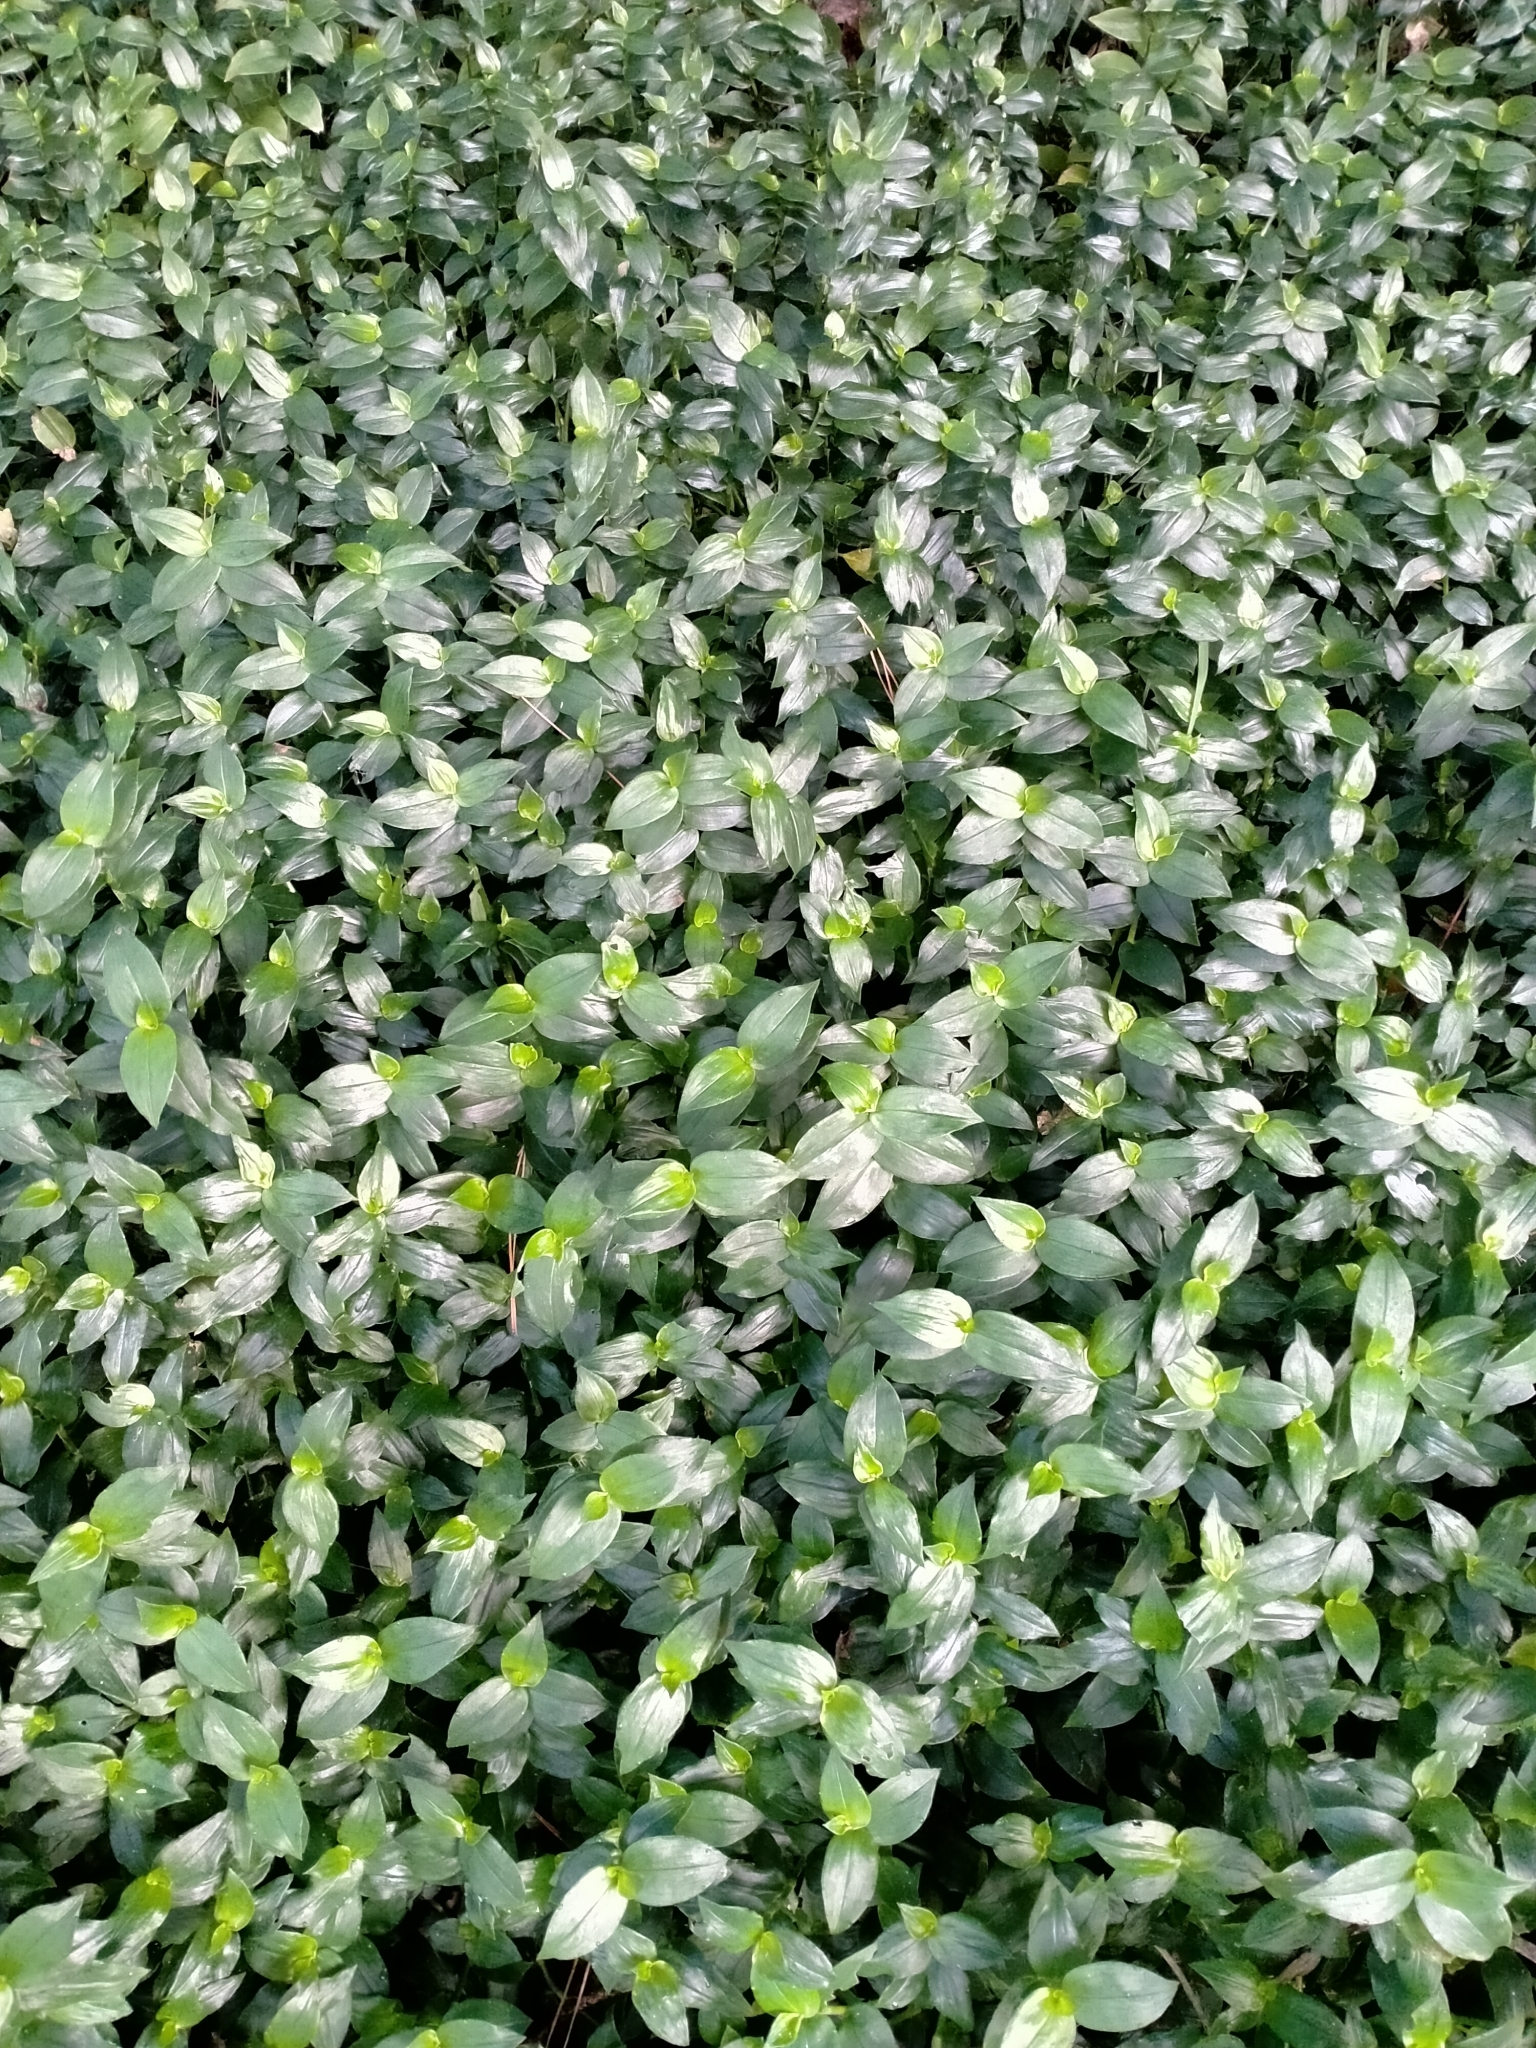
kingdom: Plantae
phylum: Tracheophyta
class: Liliopsida
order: Commelinales
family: Commelinaceae
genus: Tradescantia
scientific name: Tradescantia fluminensis
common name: Wandering-jew
